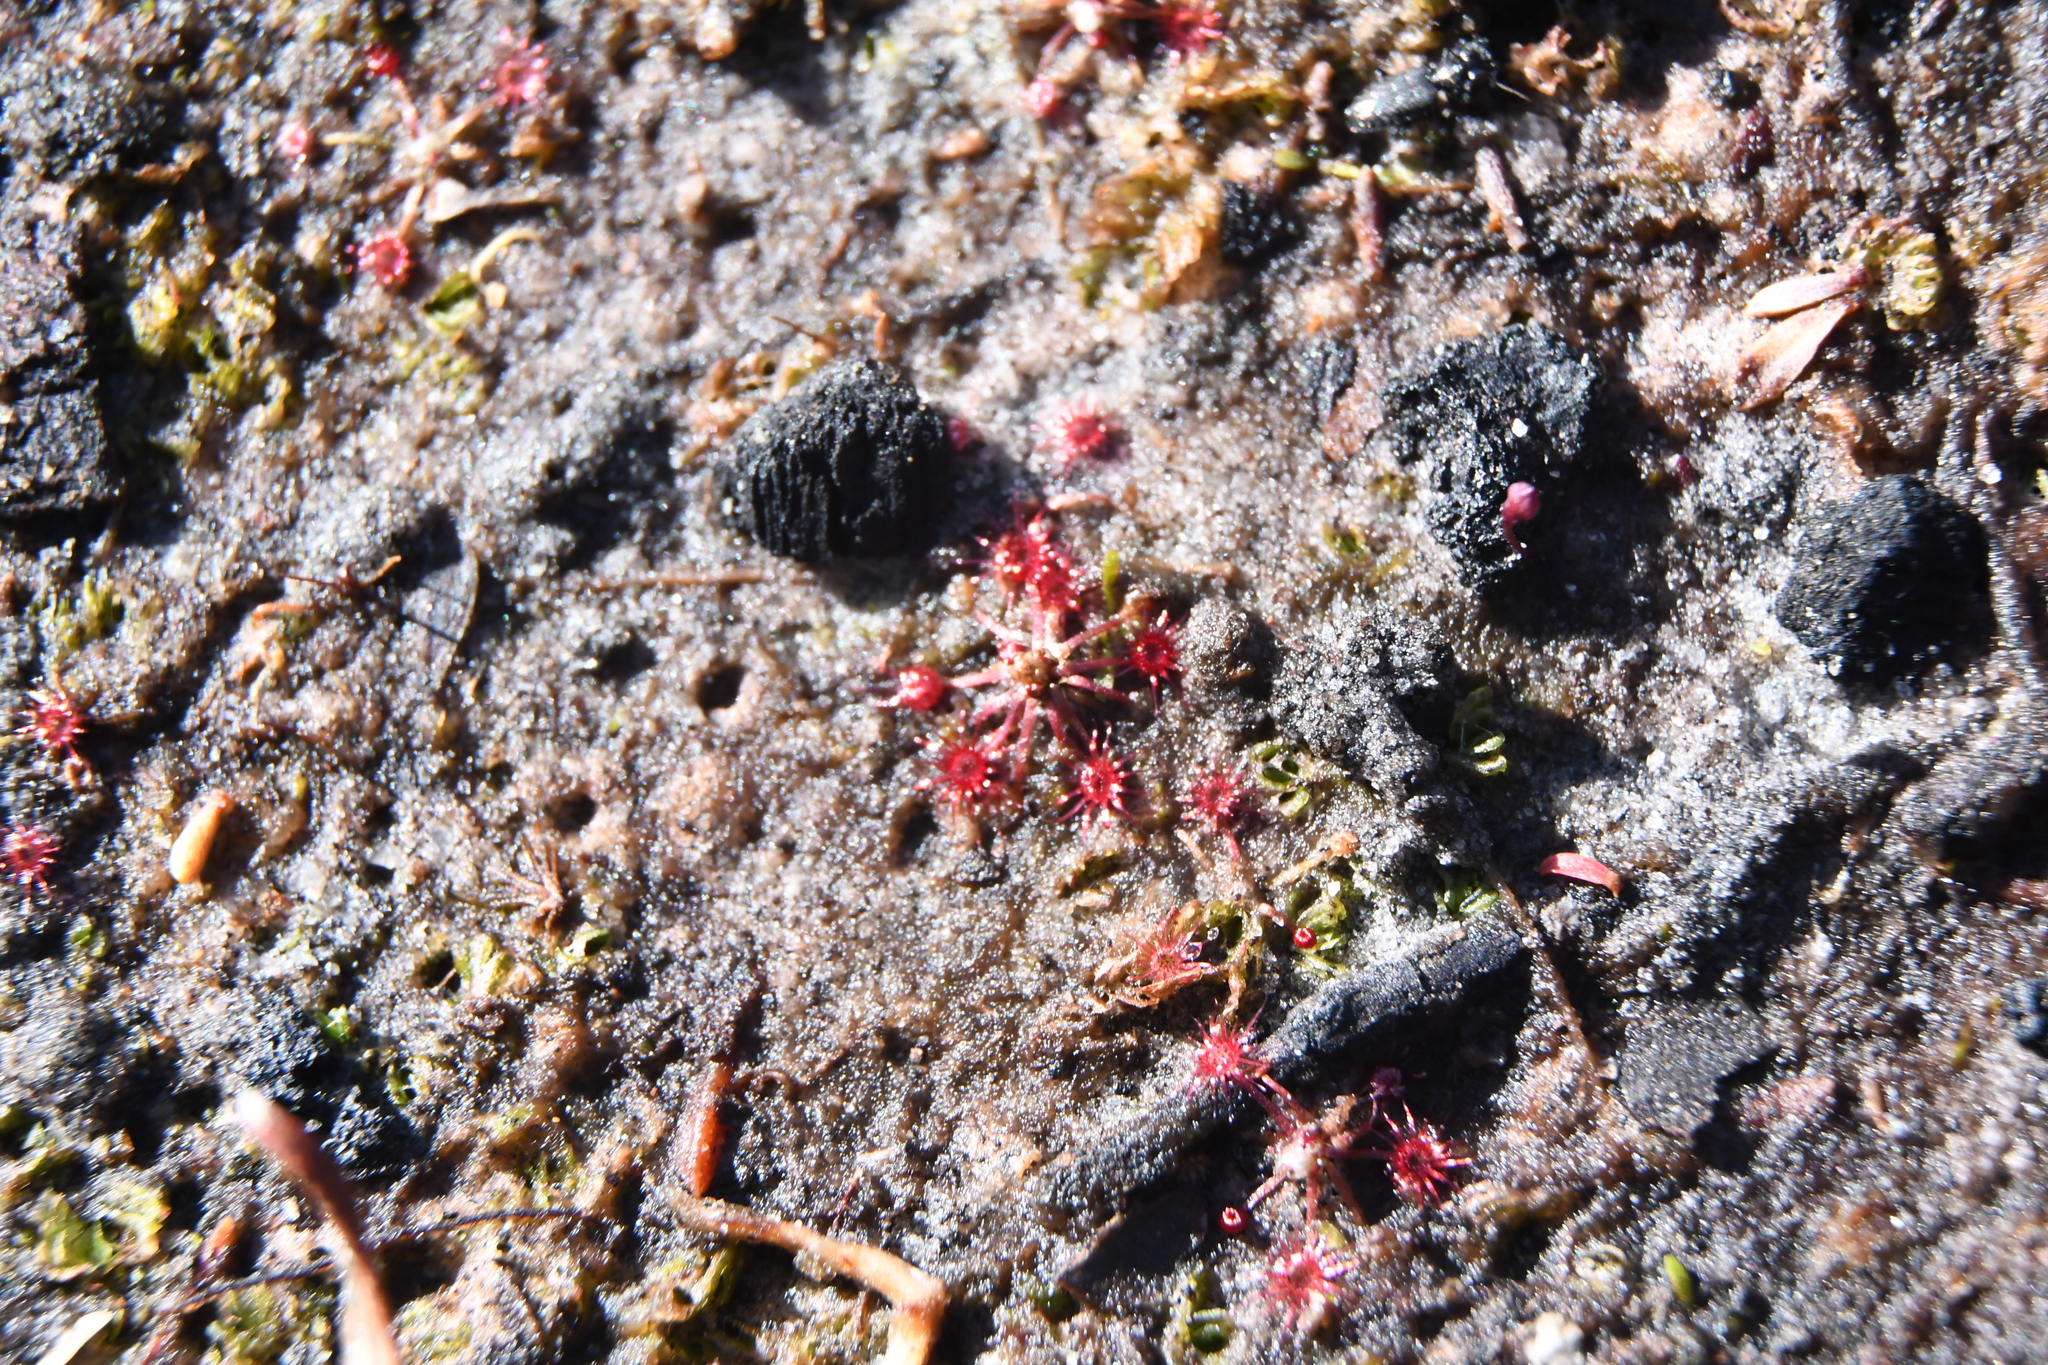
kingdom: Plantae
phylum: Tracheophyta
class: Magnoliopsida
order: Caryophyllales
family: Droseraceae
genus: Drosera
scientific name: Drosera
